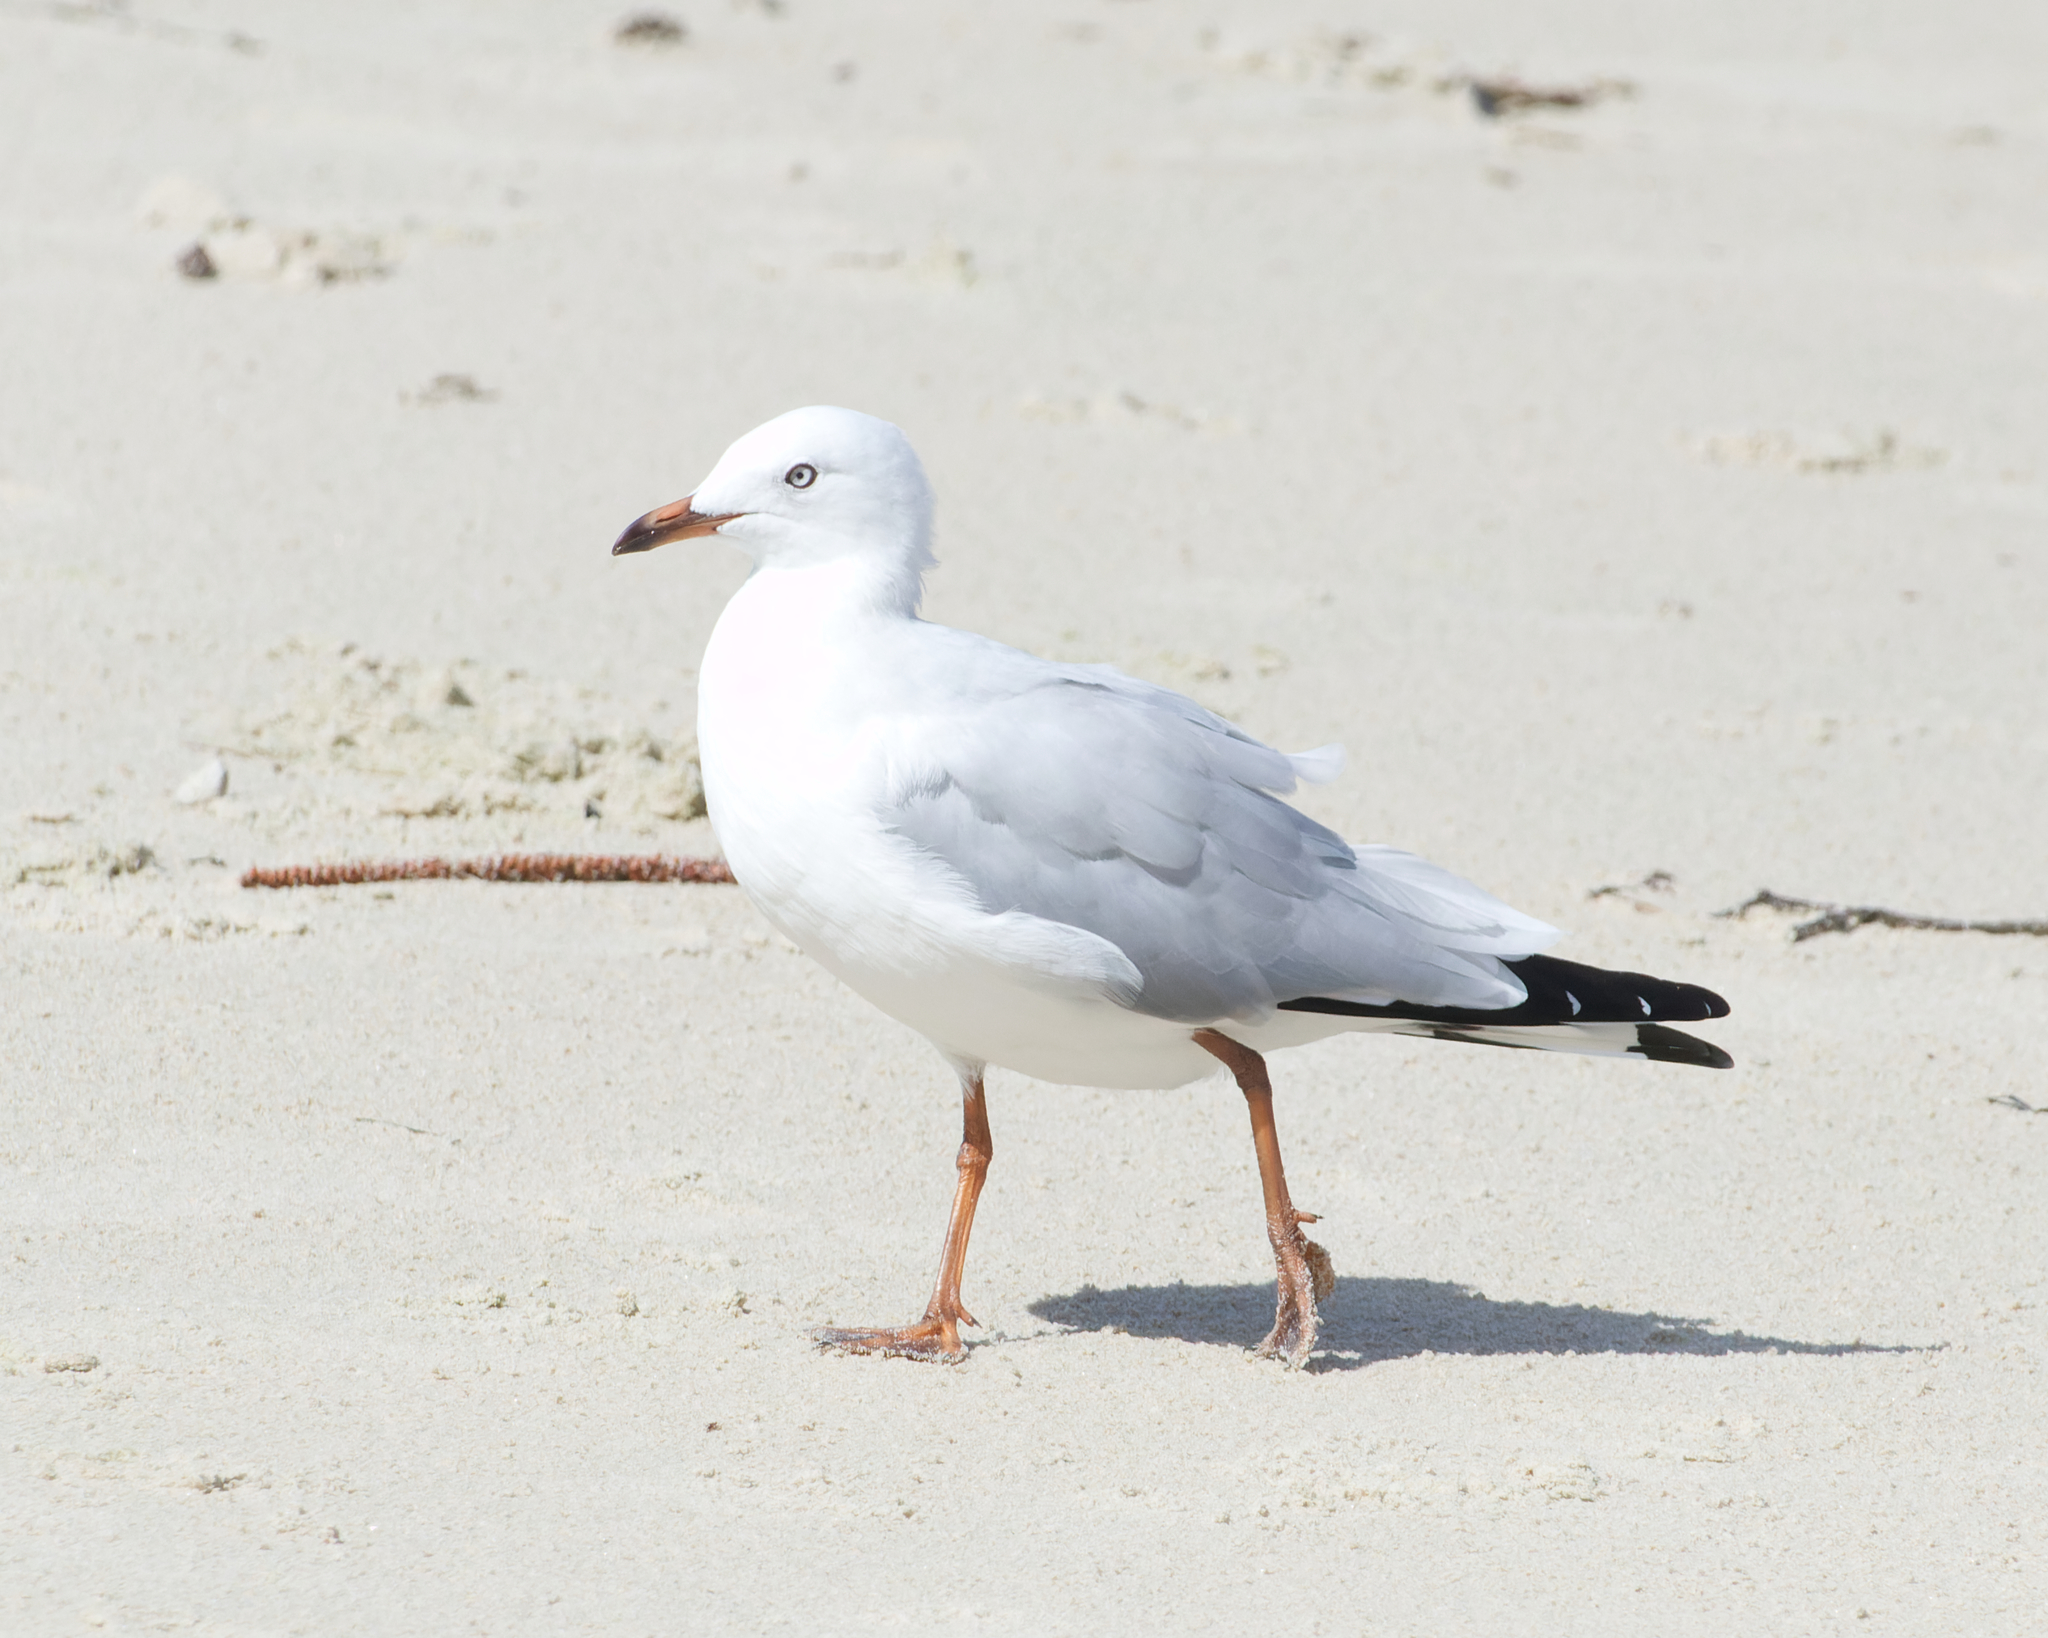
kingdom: Animalia
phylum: Chordata
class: Aves
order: Charadriiformes
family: Laridae
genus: Chroicocephalus
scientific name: Chroicocephalus novaehollandiae
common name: Silver gull
